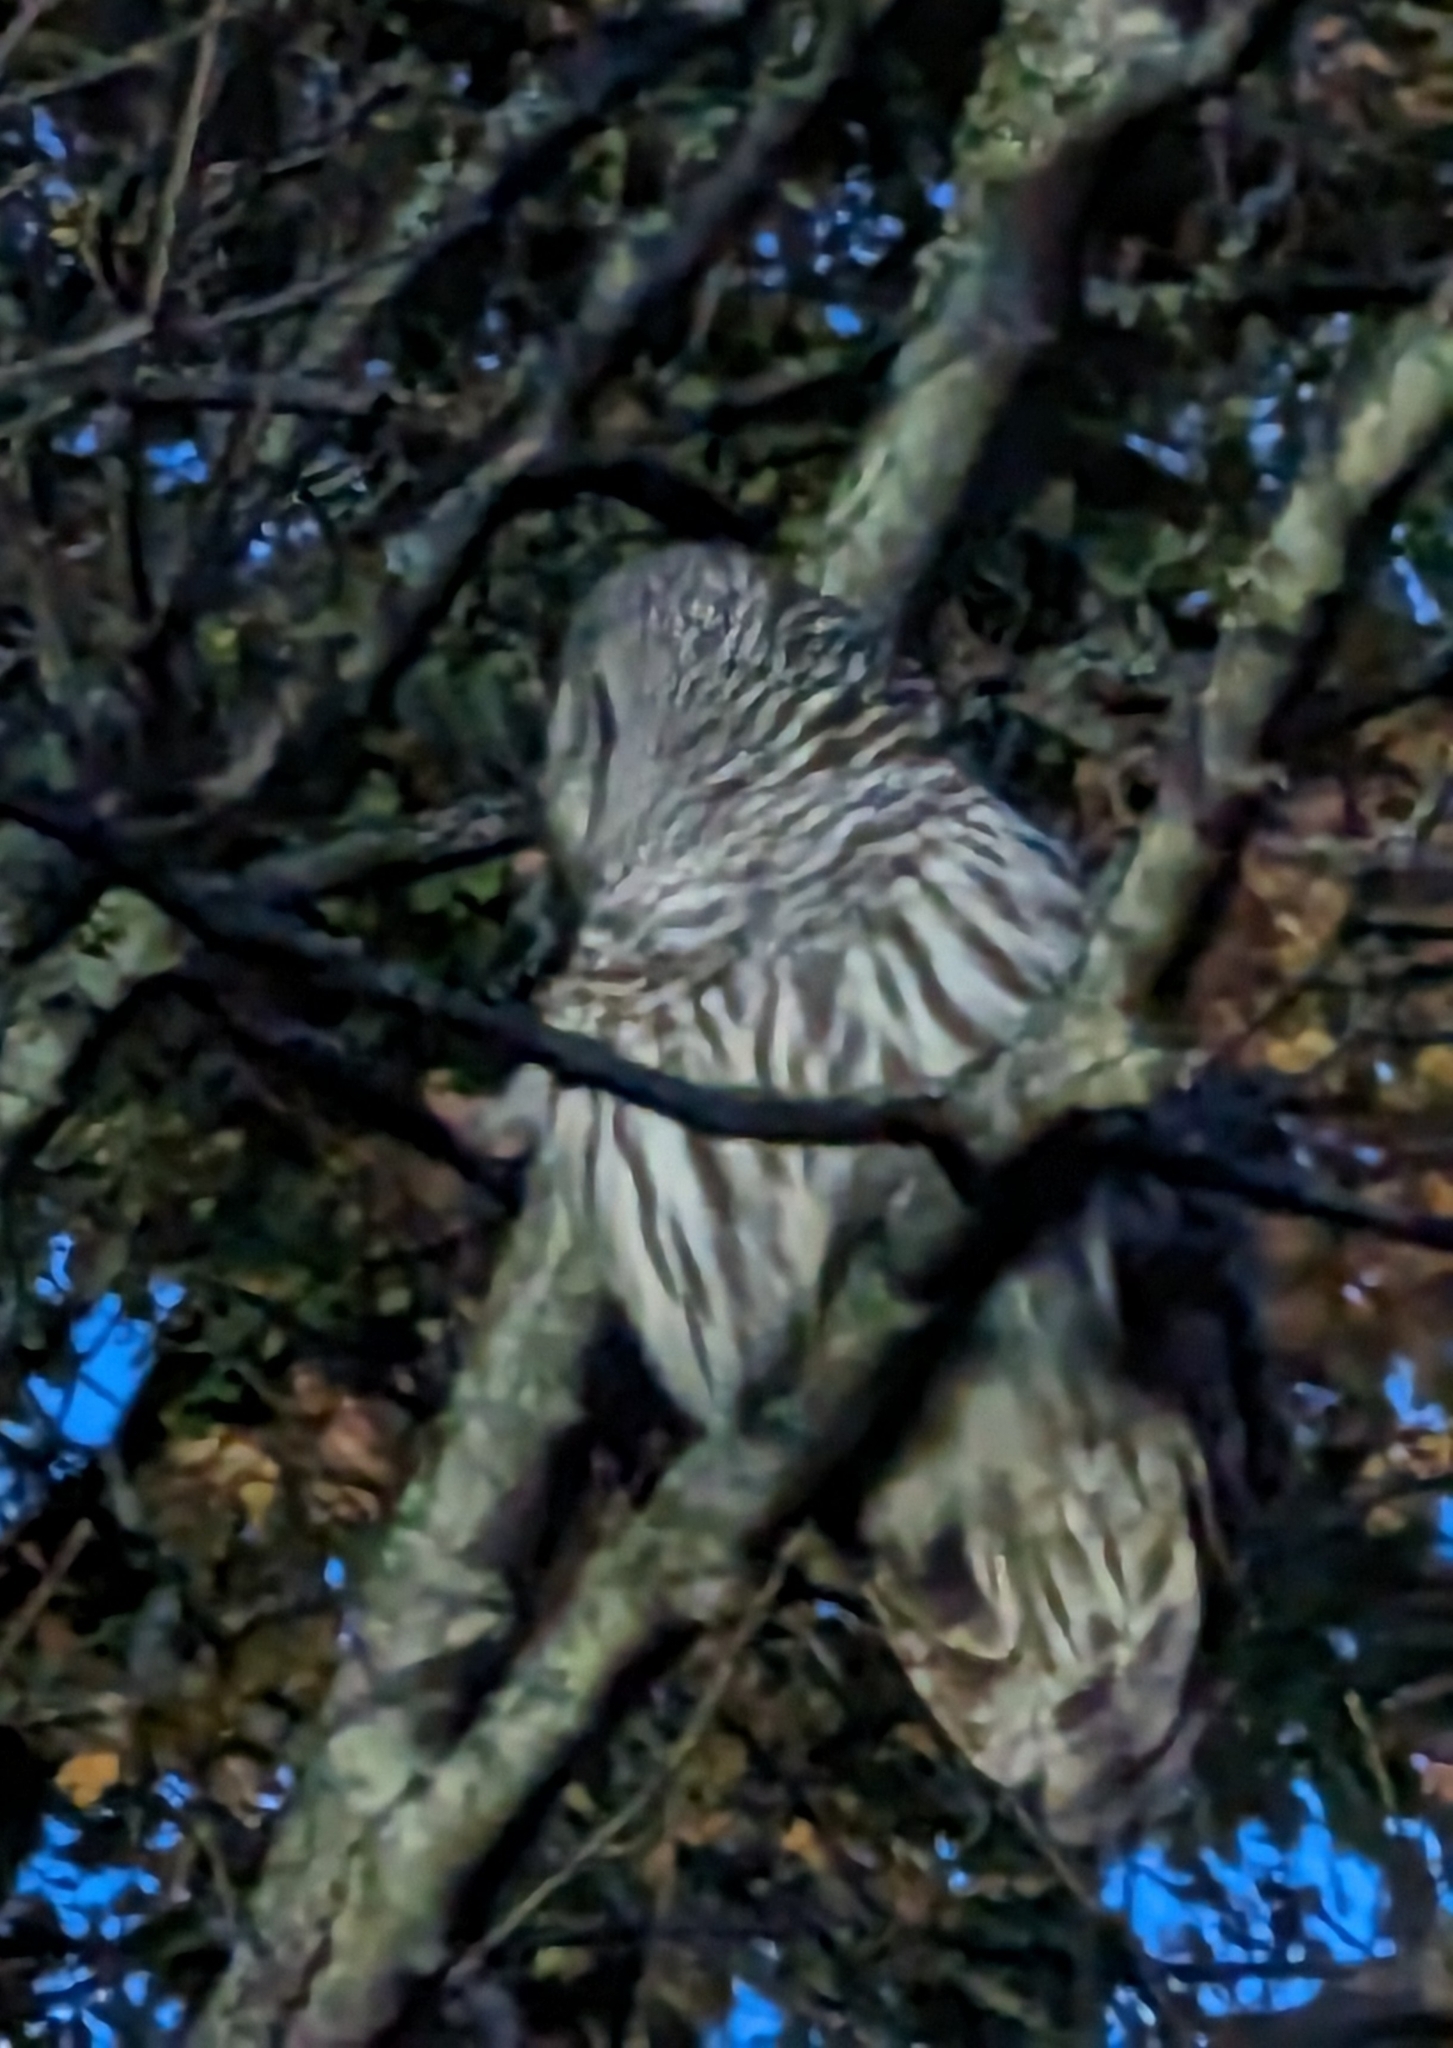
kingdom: Animalia
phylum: Chordata
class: Aves
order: Strigiformes
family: Strigidae
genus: Strix
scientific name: Strix varia
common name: Barred owl
